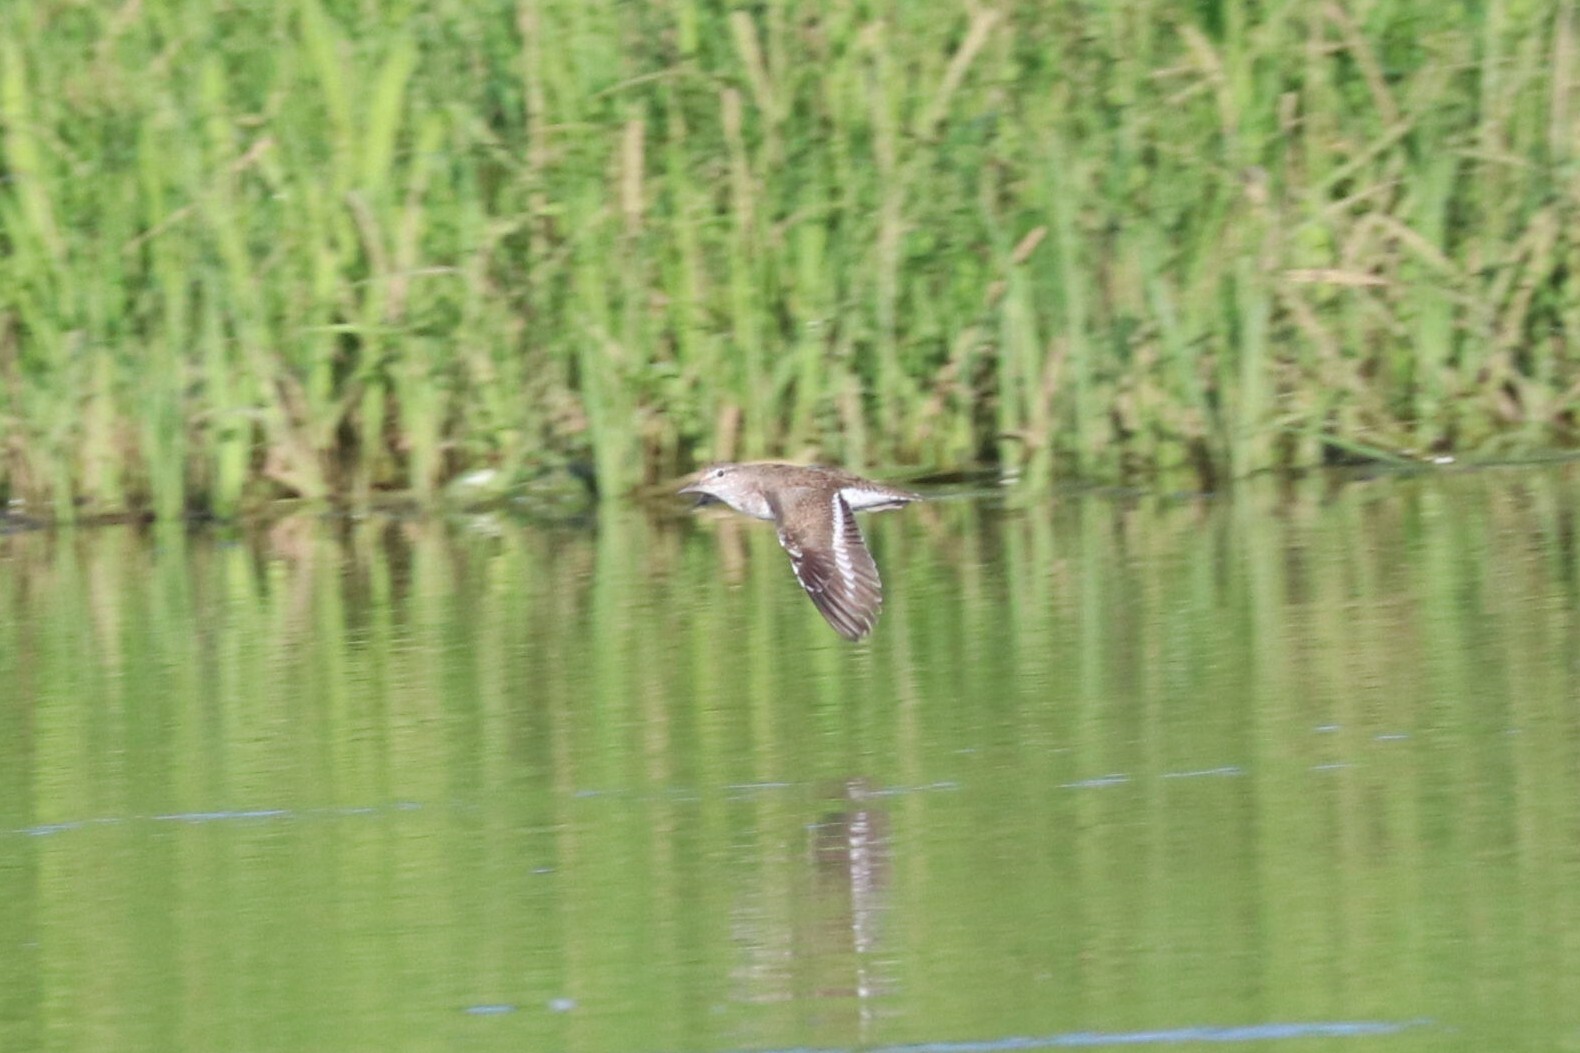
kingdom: Animalia
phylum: Chordata
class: Aves
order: Charadriiformes
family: Scolopacidae
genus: Actitis
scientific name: Actitis hypoleucos
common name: Common sandpiper
